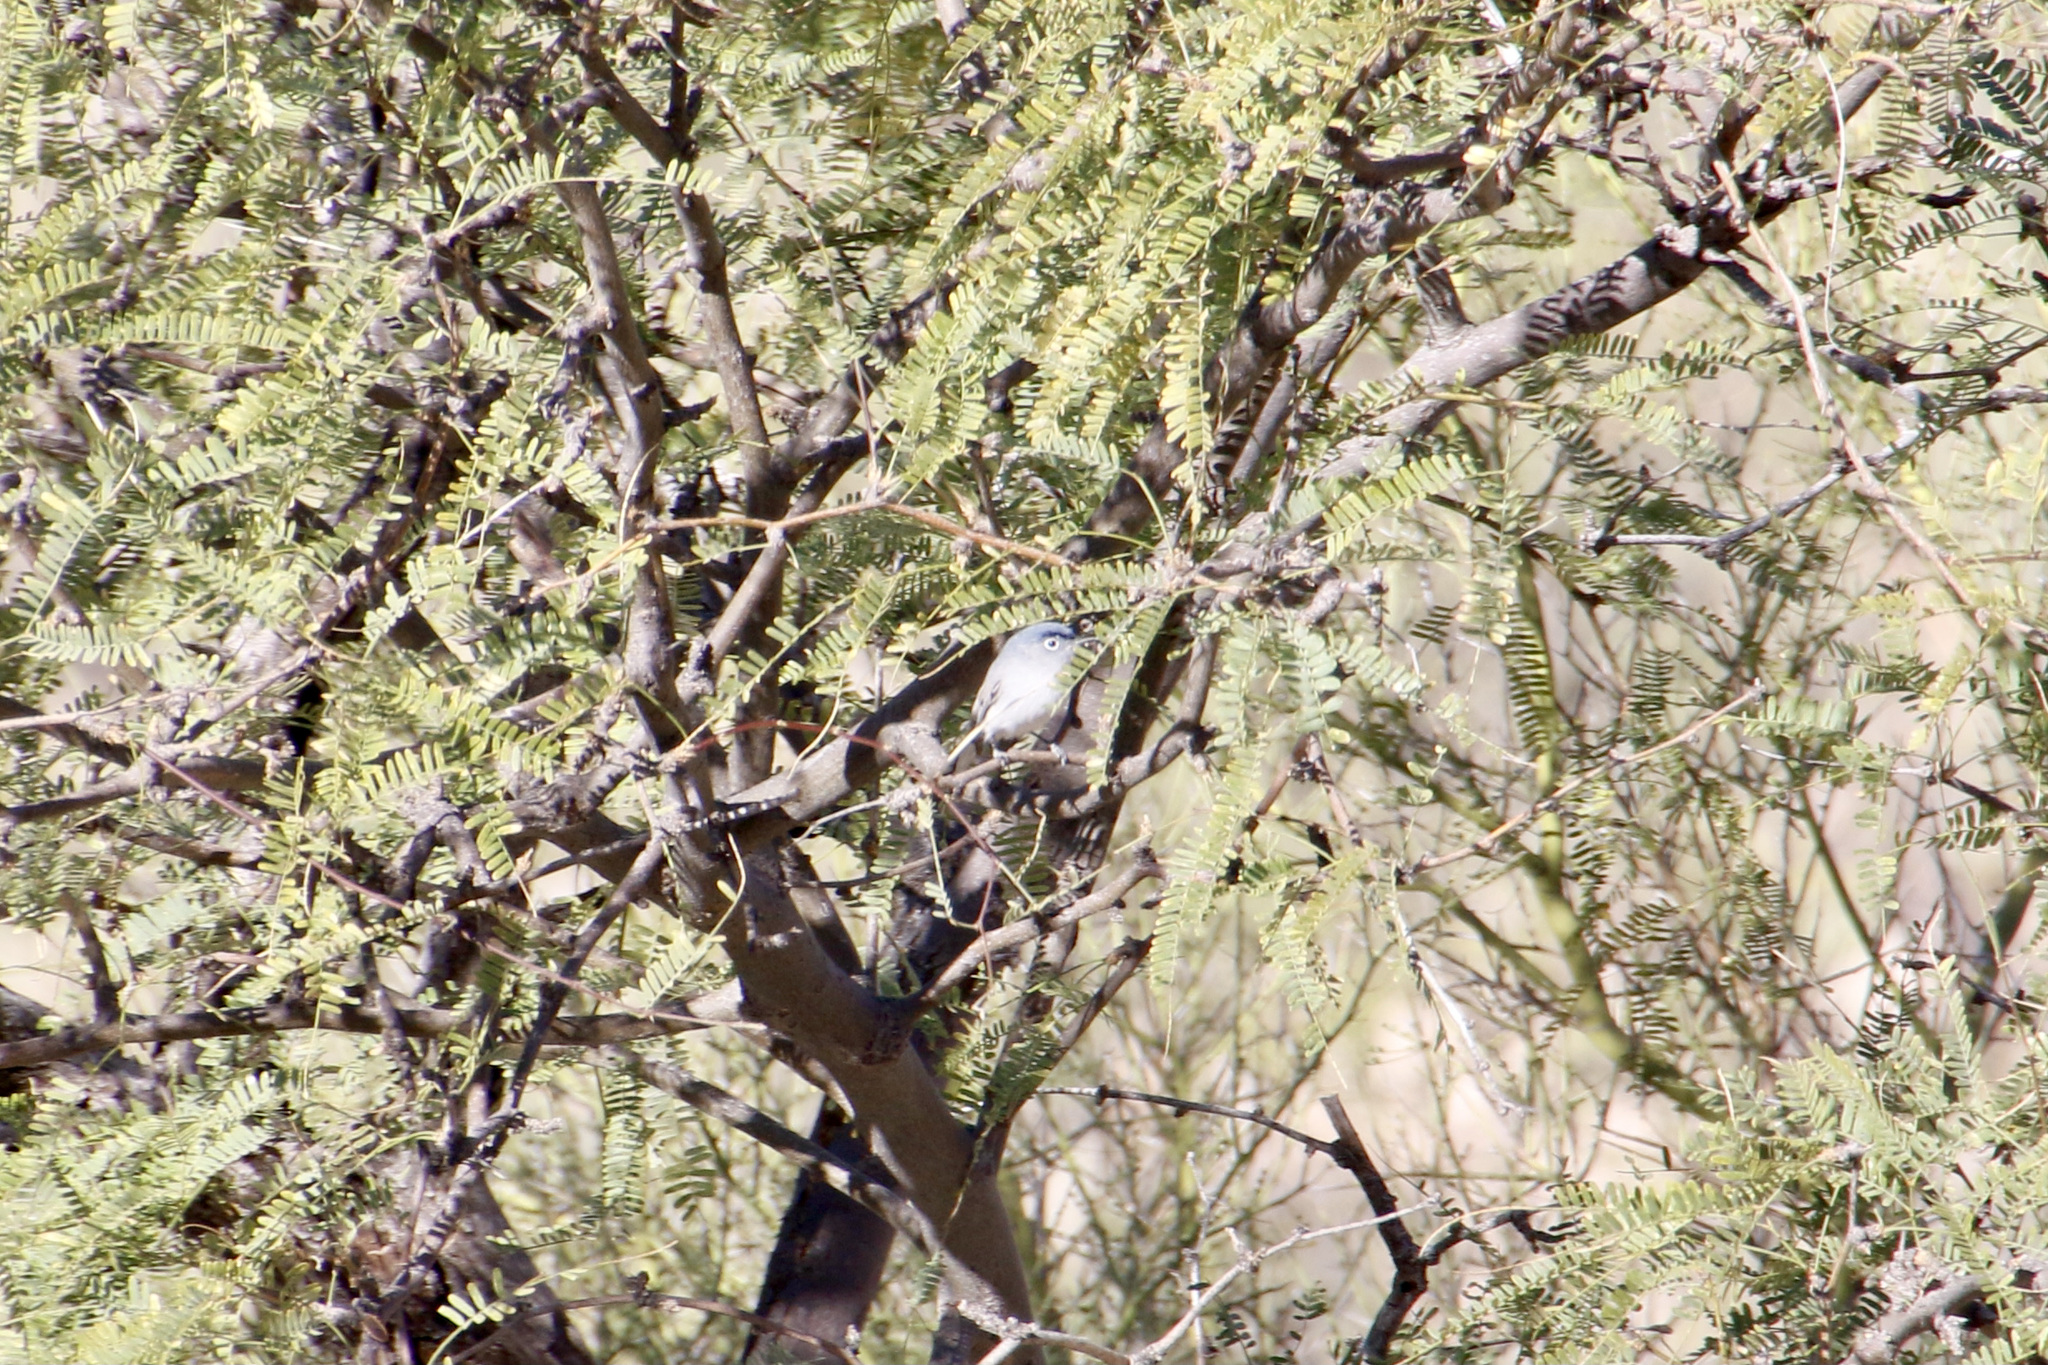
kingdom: Animalia
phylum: Chordata
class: Aves
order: Passeriformes
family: Polioptilidae
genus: Polioptila
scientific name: Polioptila caerulea
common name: Blue-gray gnatcatcher
